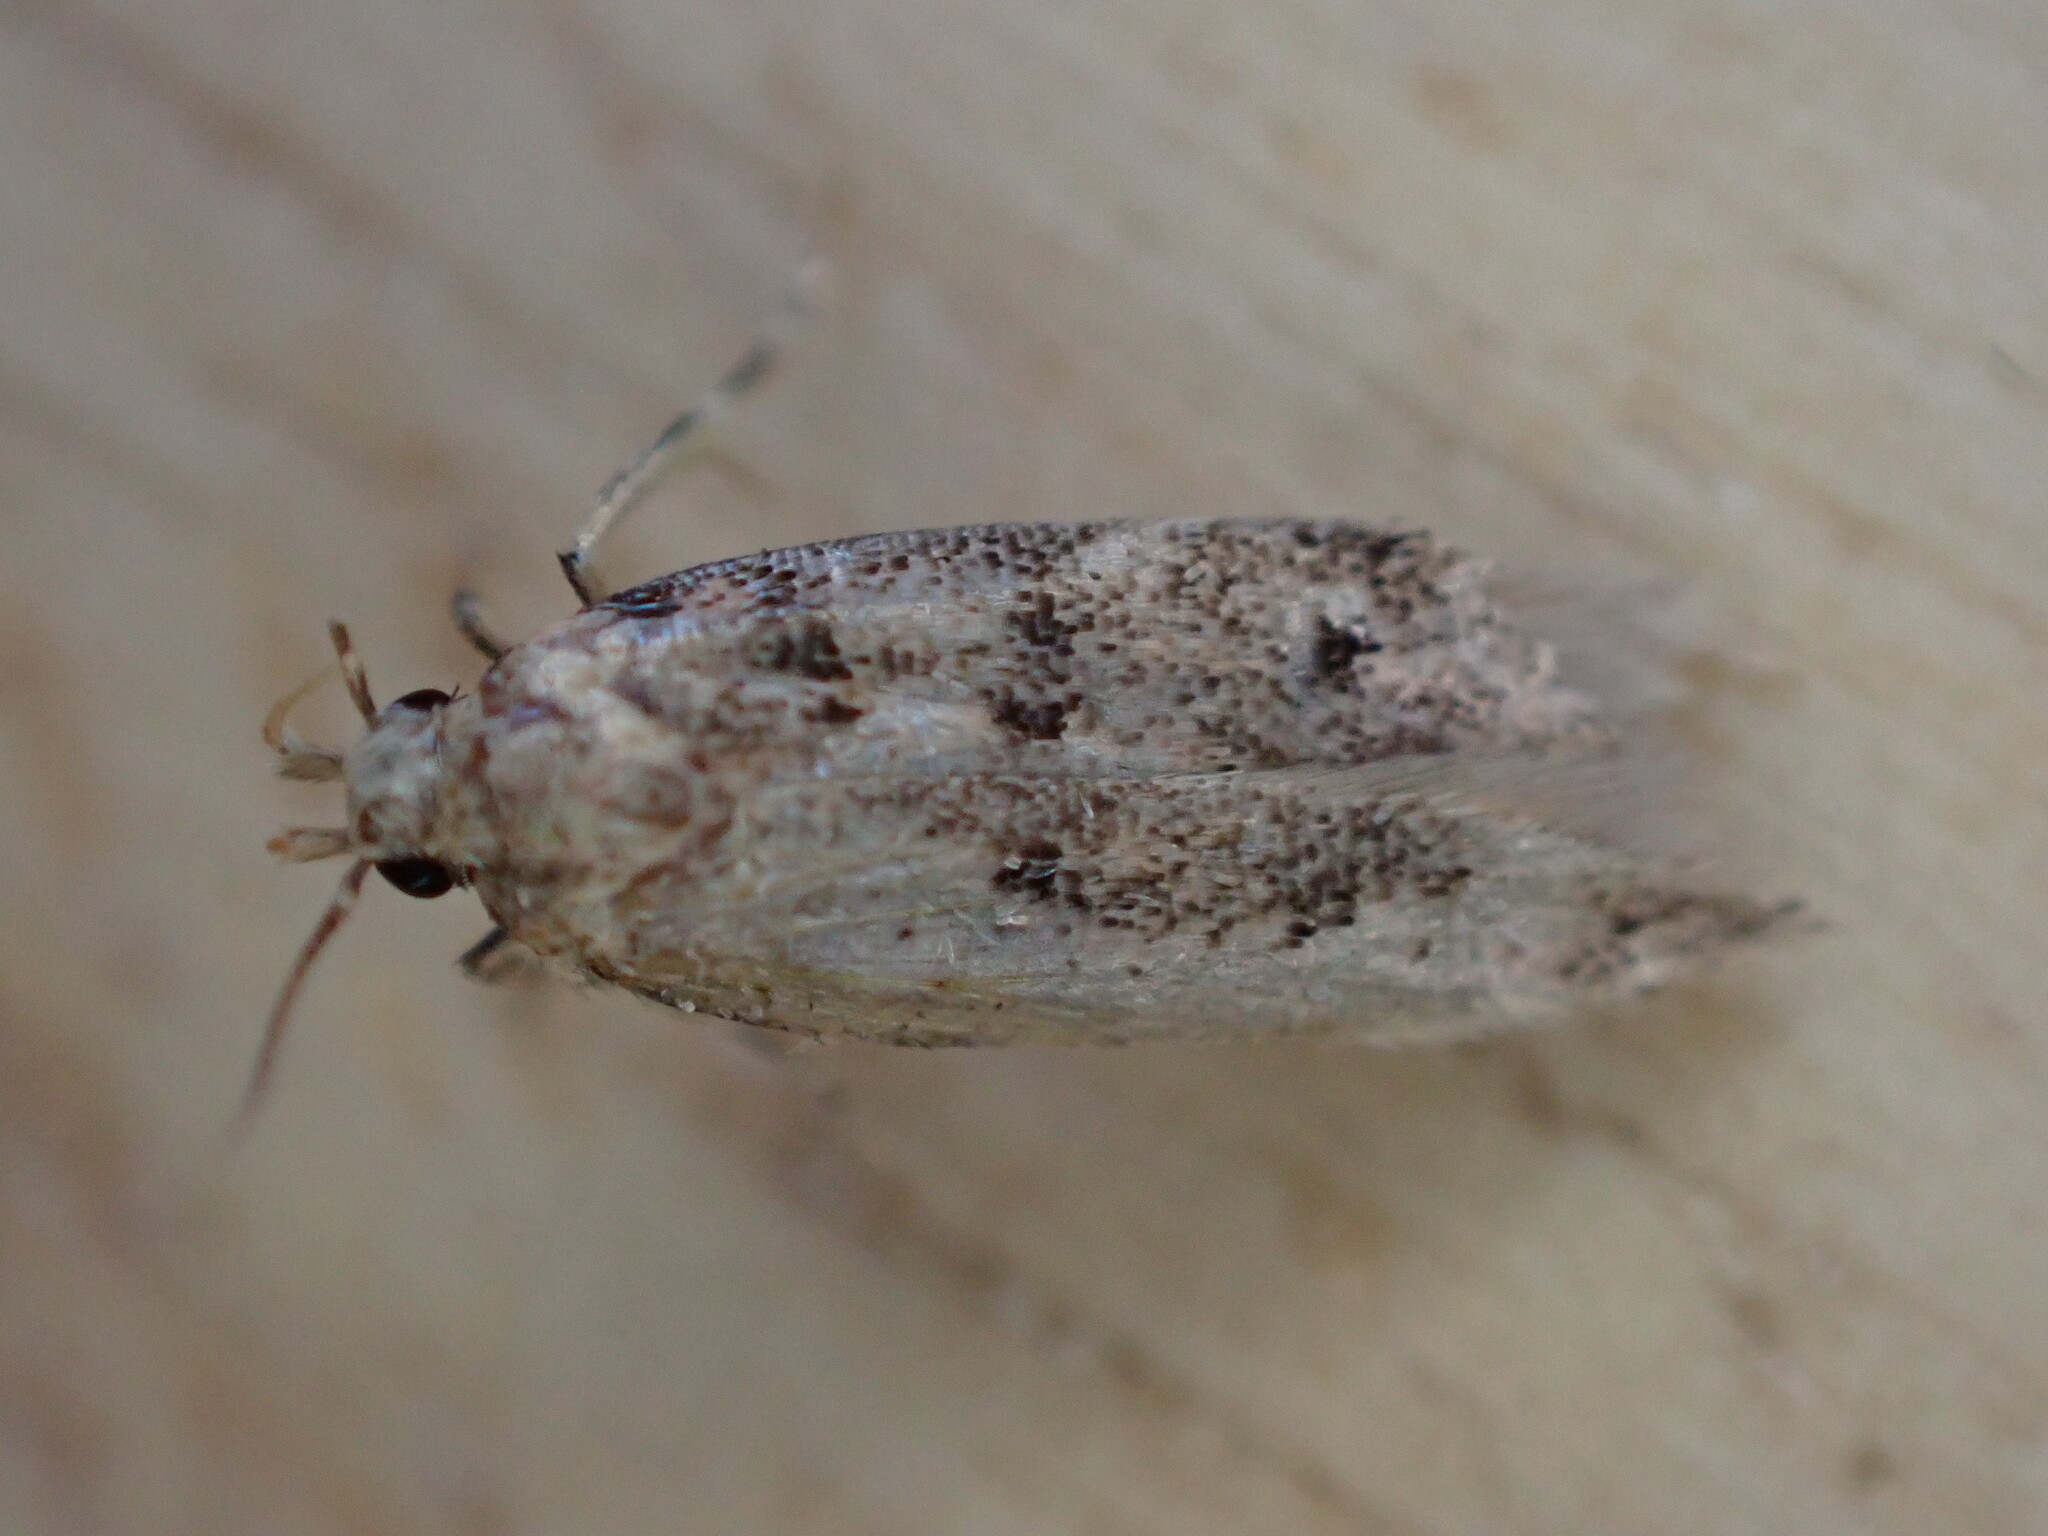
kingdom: Animalia
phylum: Arthropoda
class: Insecta
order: Lepidoptera
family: Gelechiidae
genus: Bryotropha
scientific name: Bryotropha domestica
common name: House groundling
